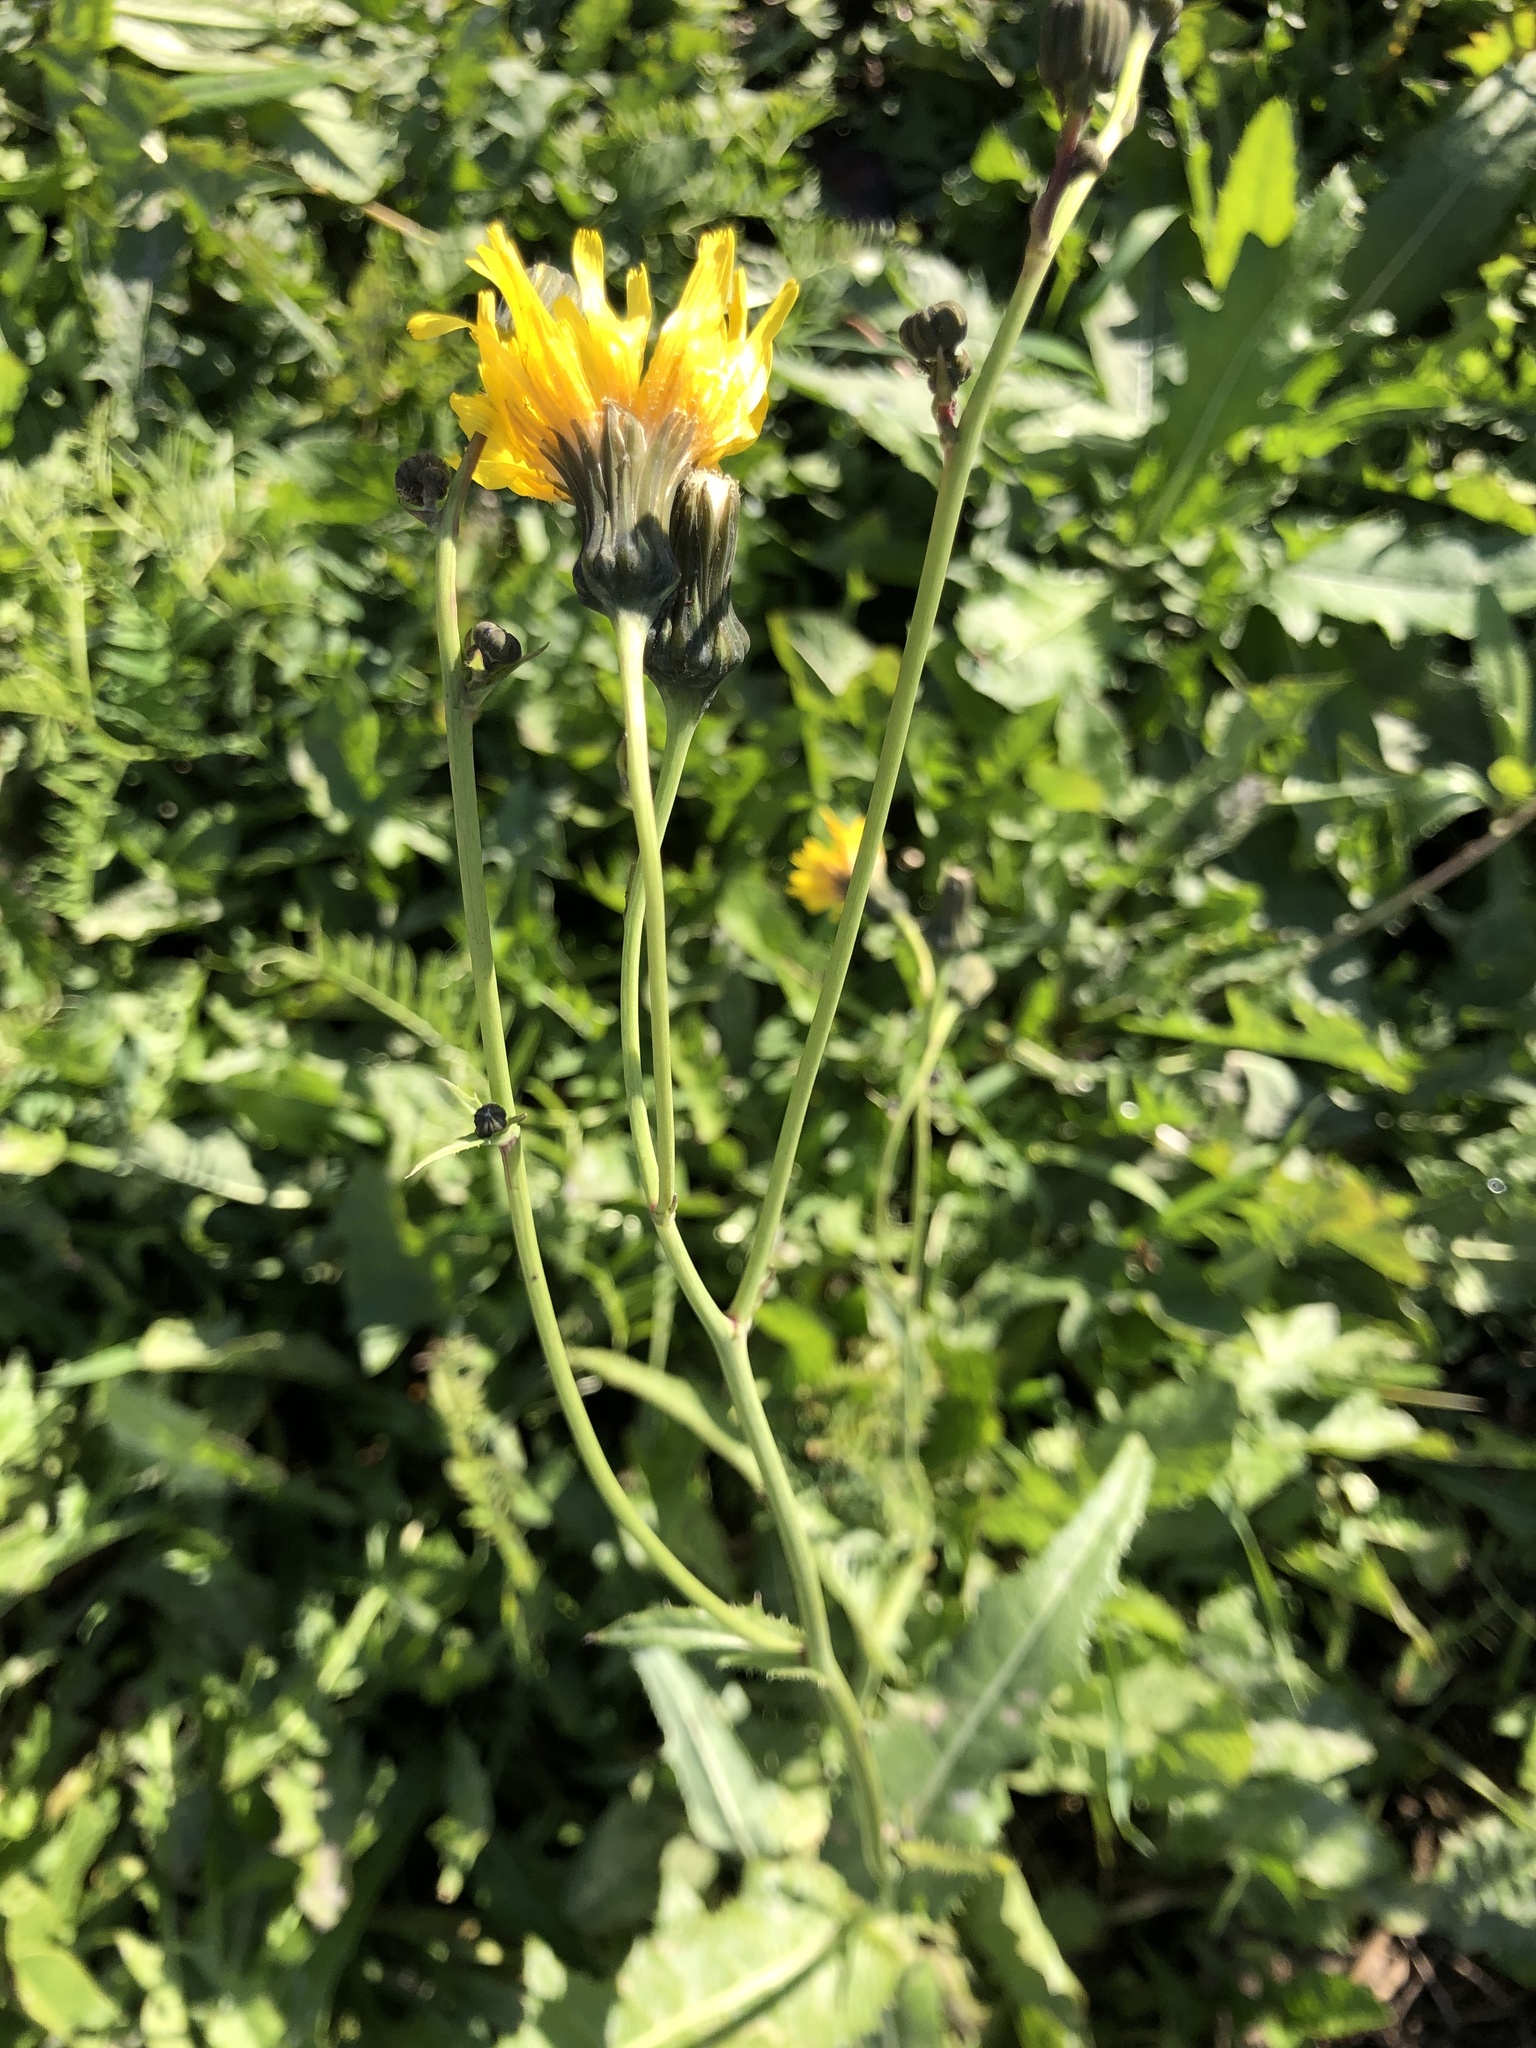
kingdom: Plantae
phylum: Tracheophyta
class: Magnoliopsida
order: Asterales
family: Asteraceae
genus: Sonchus
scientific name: Sonchus arvensis
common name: Perennial sow-thistle
